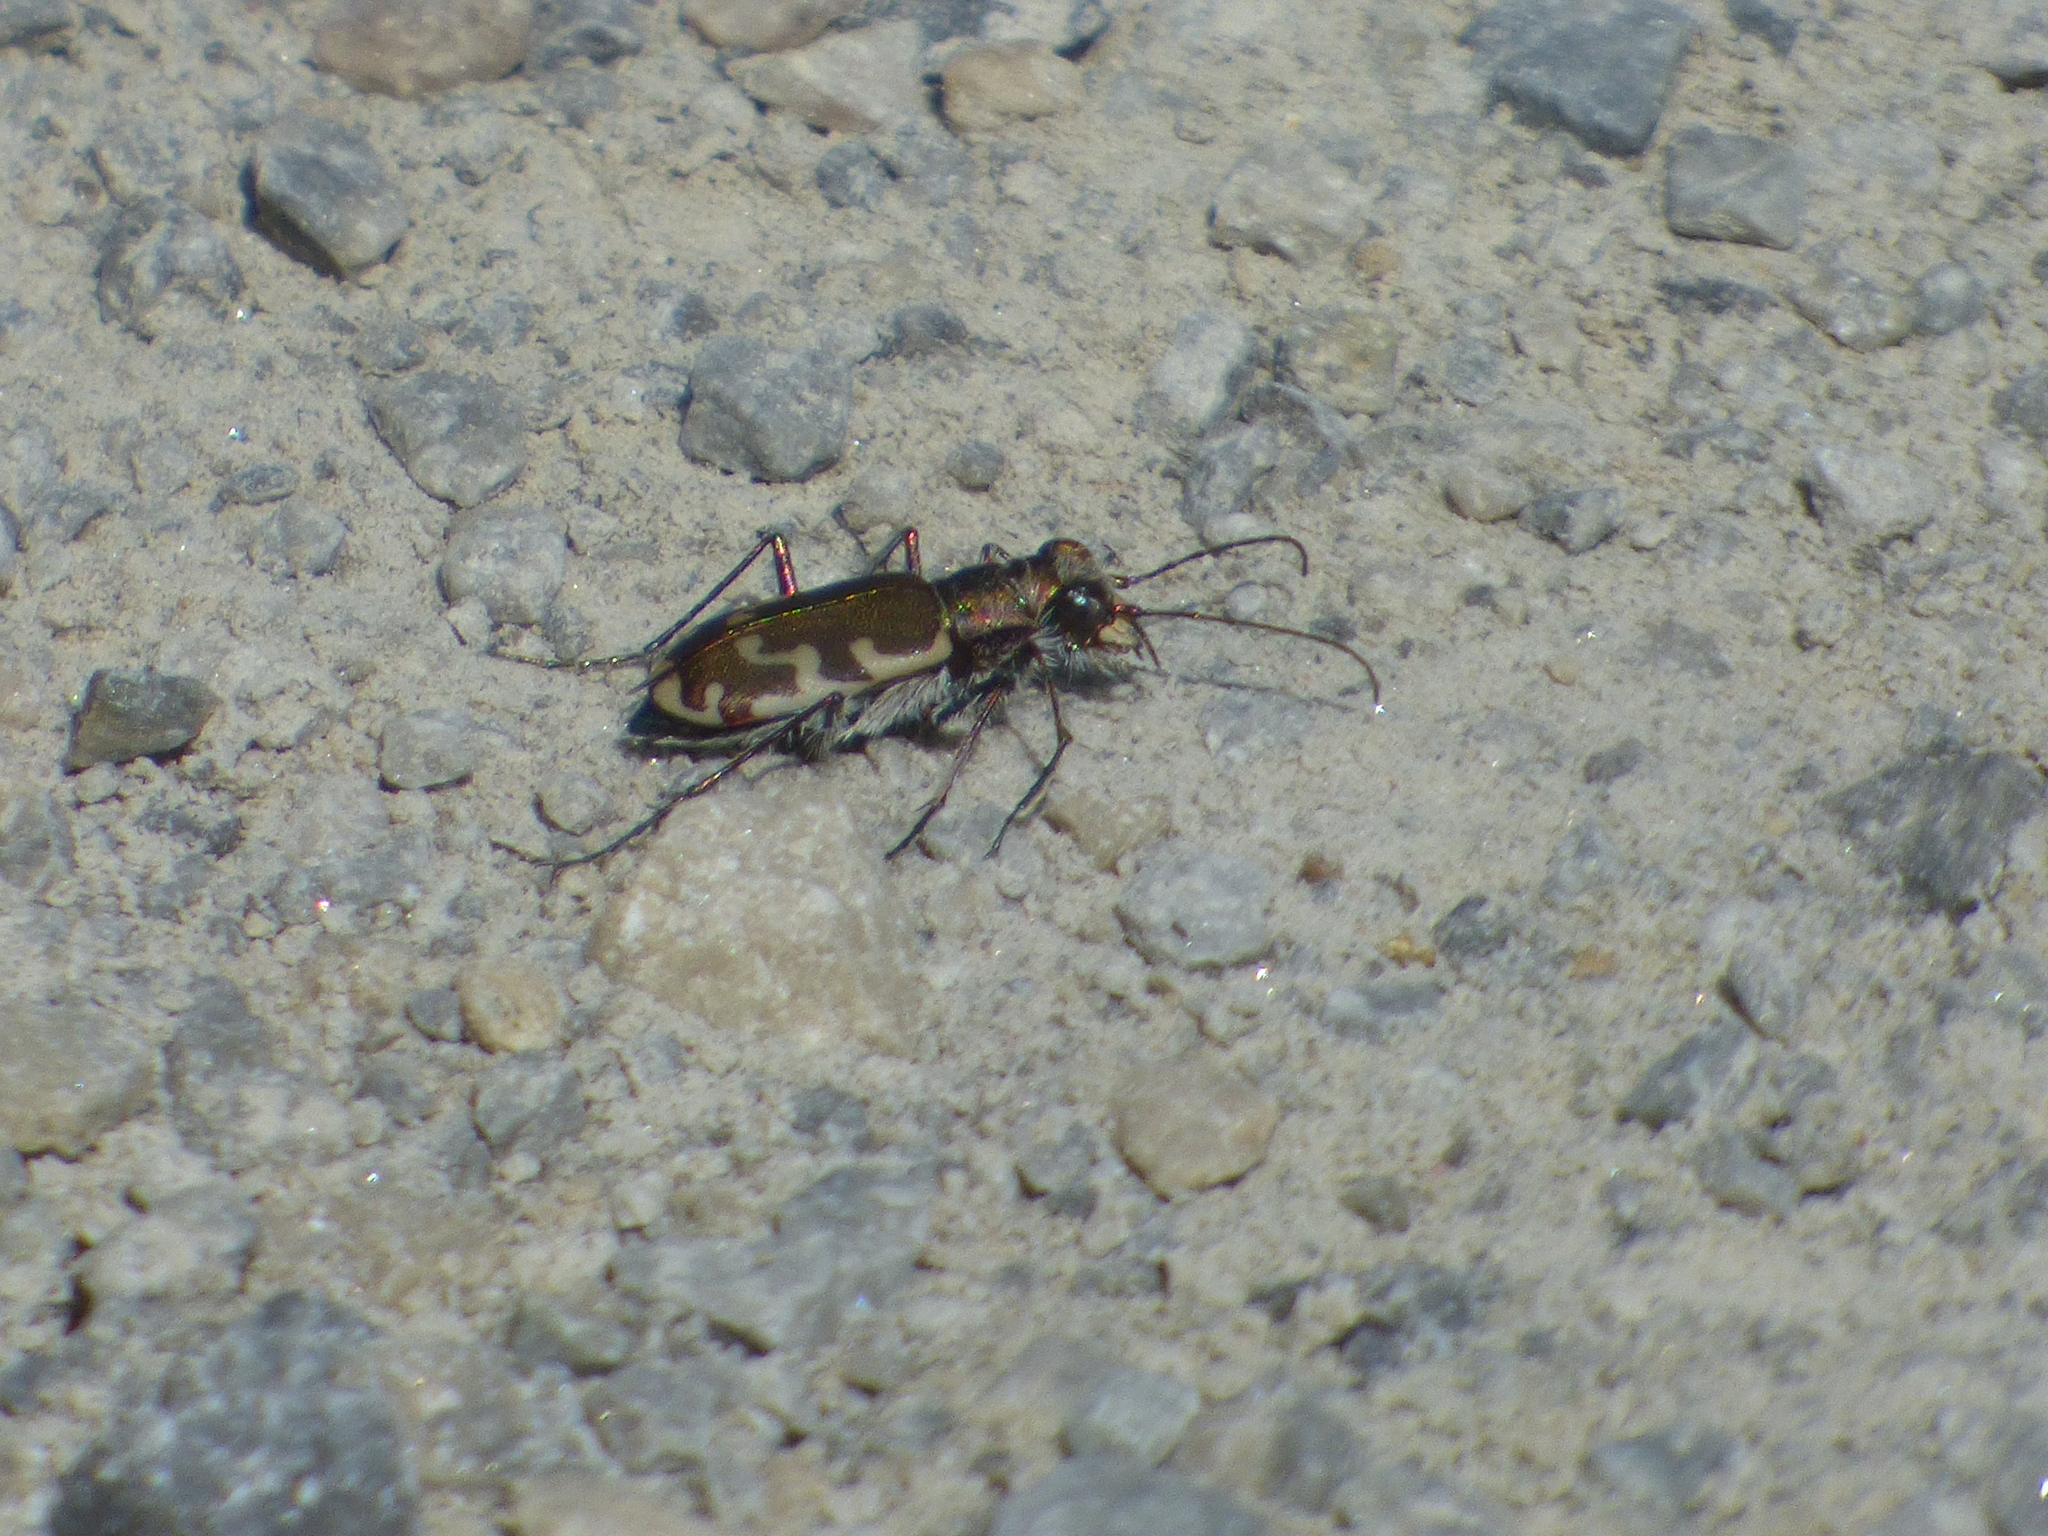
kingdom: Animalia
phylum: Arthropoda
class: Insecta
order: Coleoptera
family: Carabidae
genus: Cicindela
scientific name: Cicindela repanda
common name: Bronzed tiger beetle
